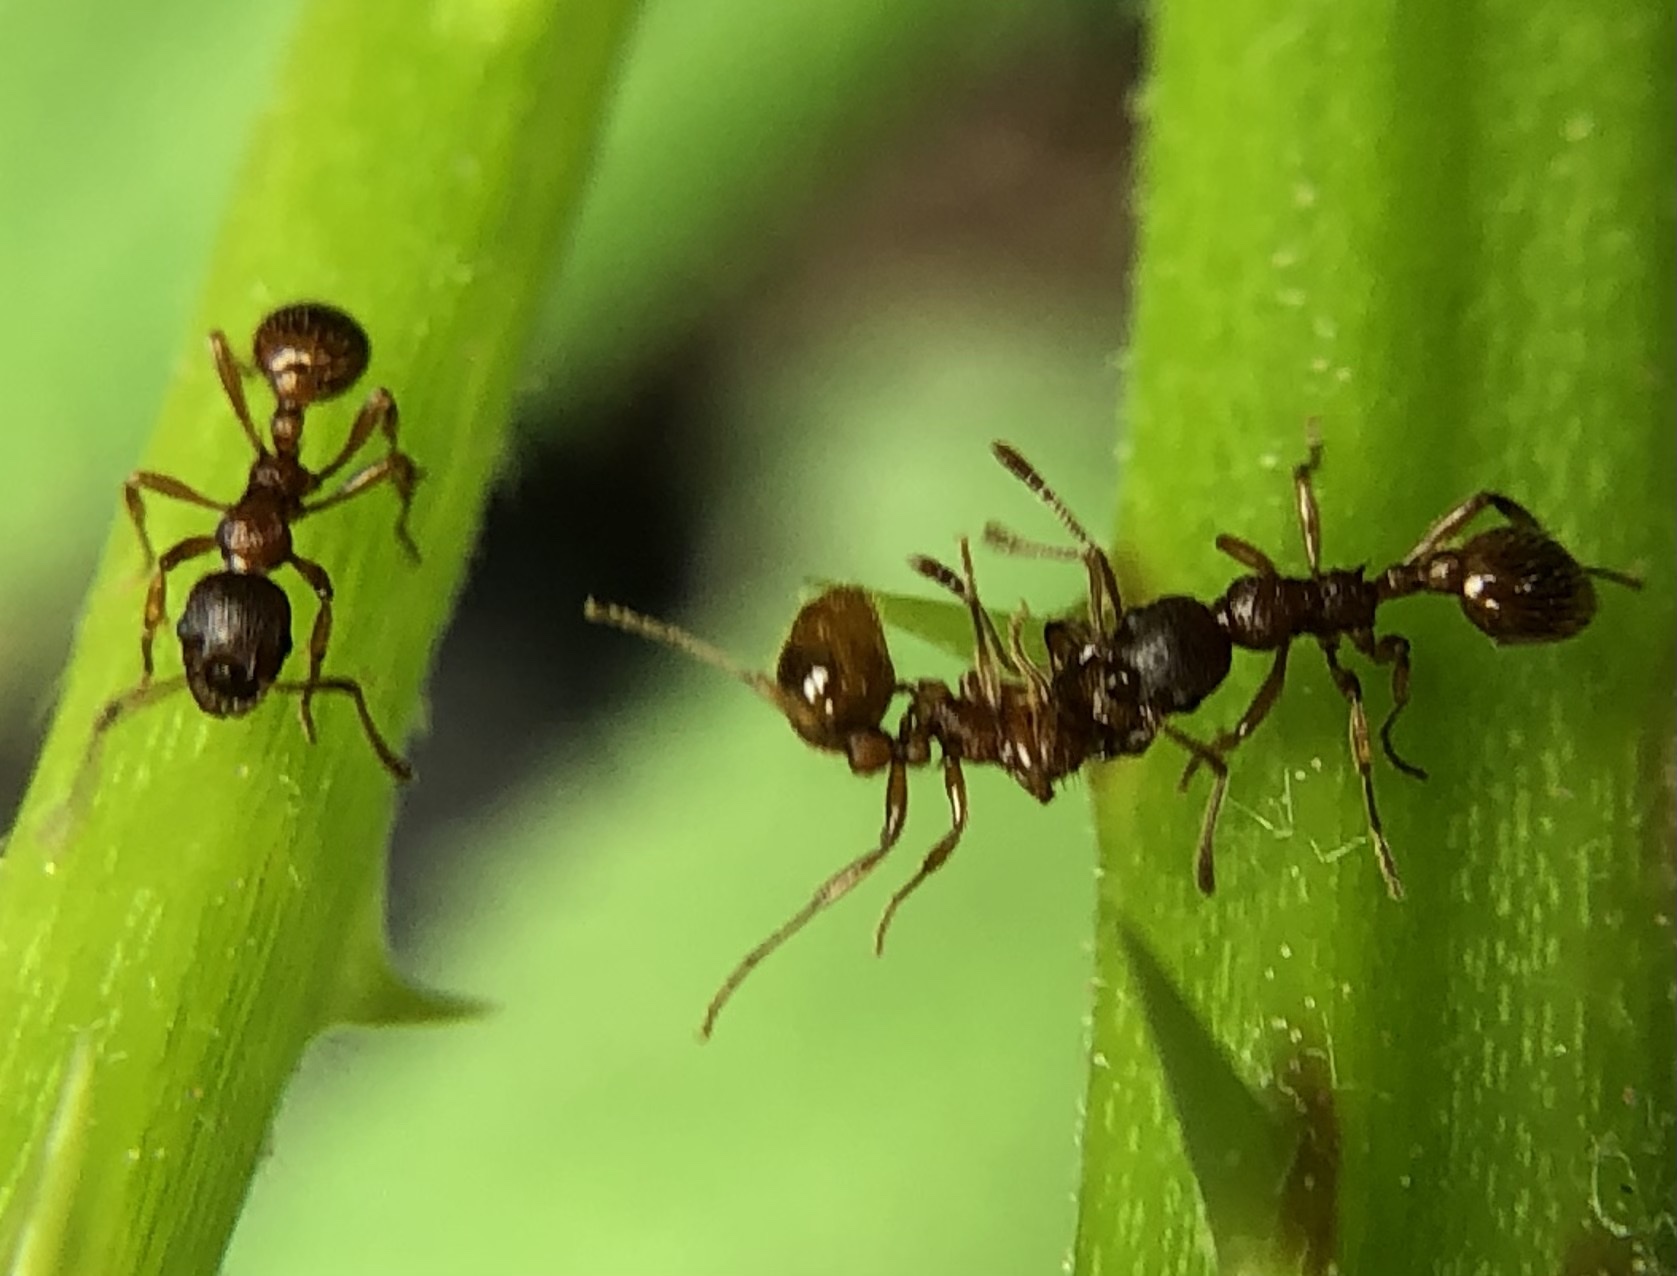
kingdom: Animalia
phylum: Arthropoda
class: Insecta
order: Hymenoptera
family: Formicidae
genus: Myrmica
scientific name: Myrmica ruginodis
